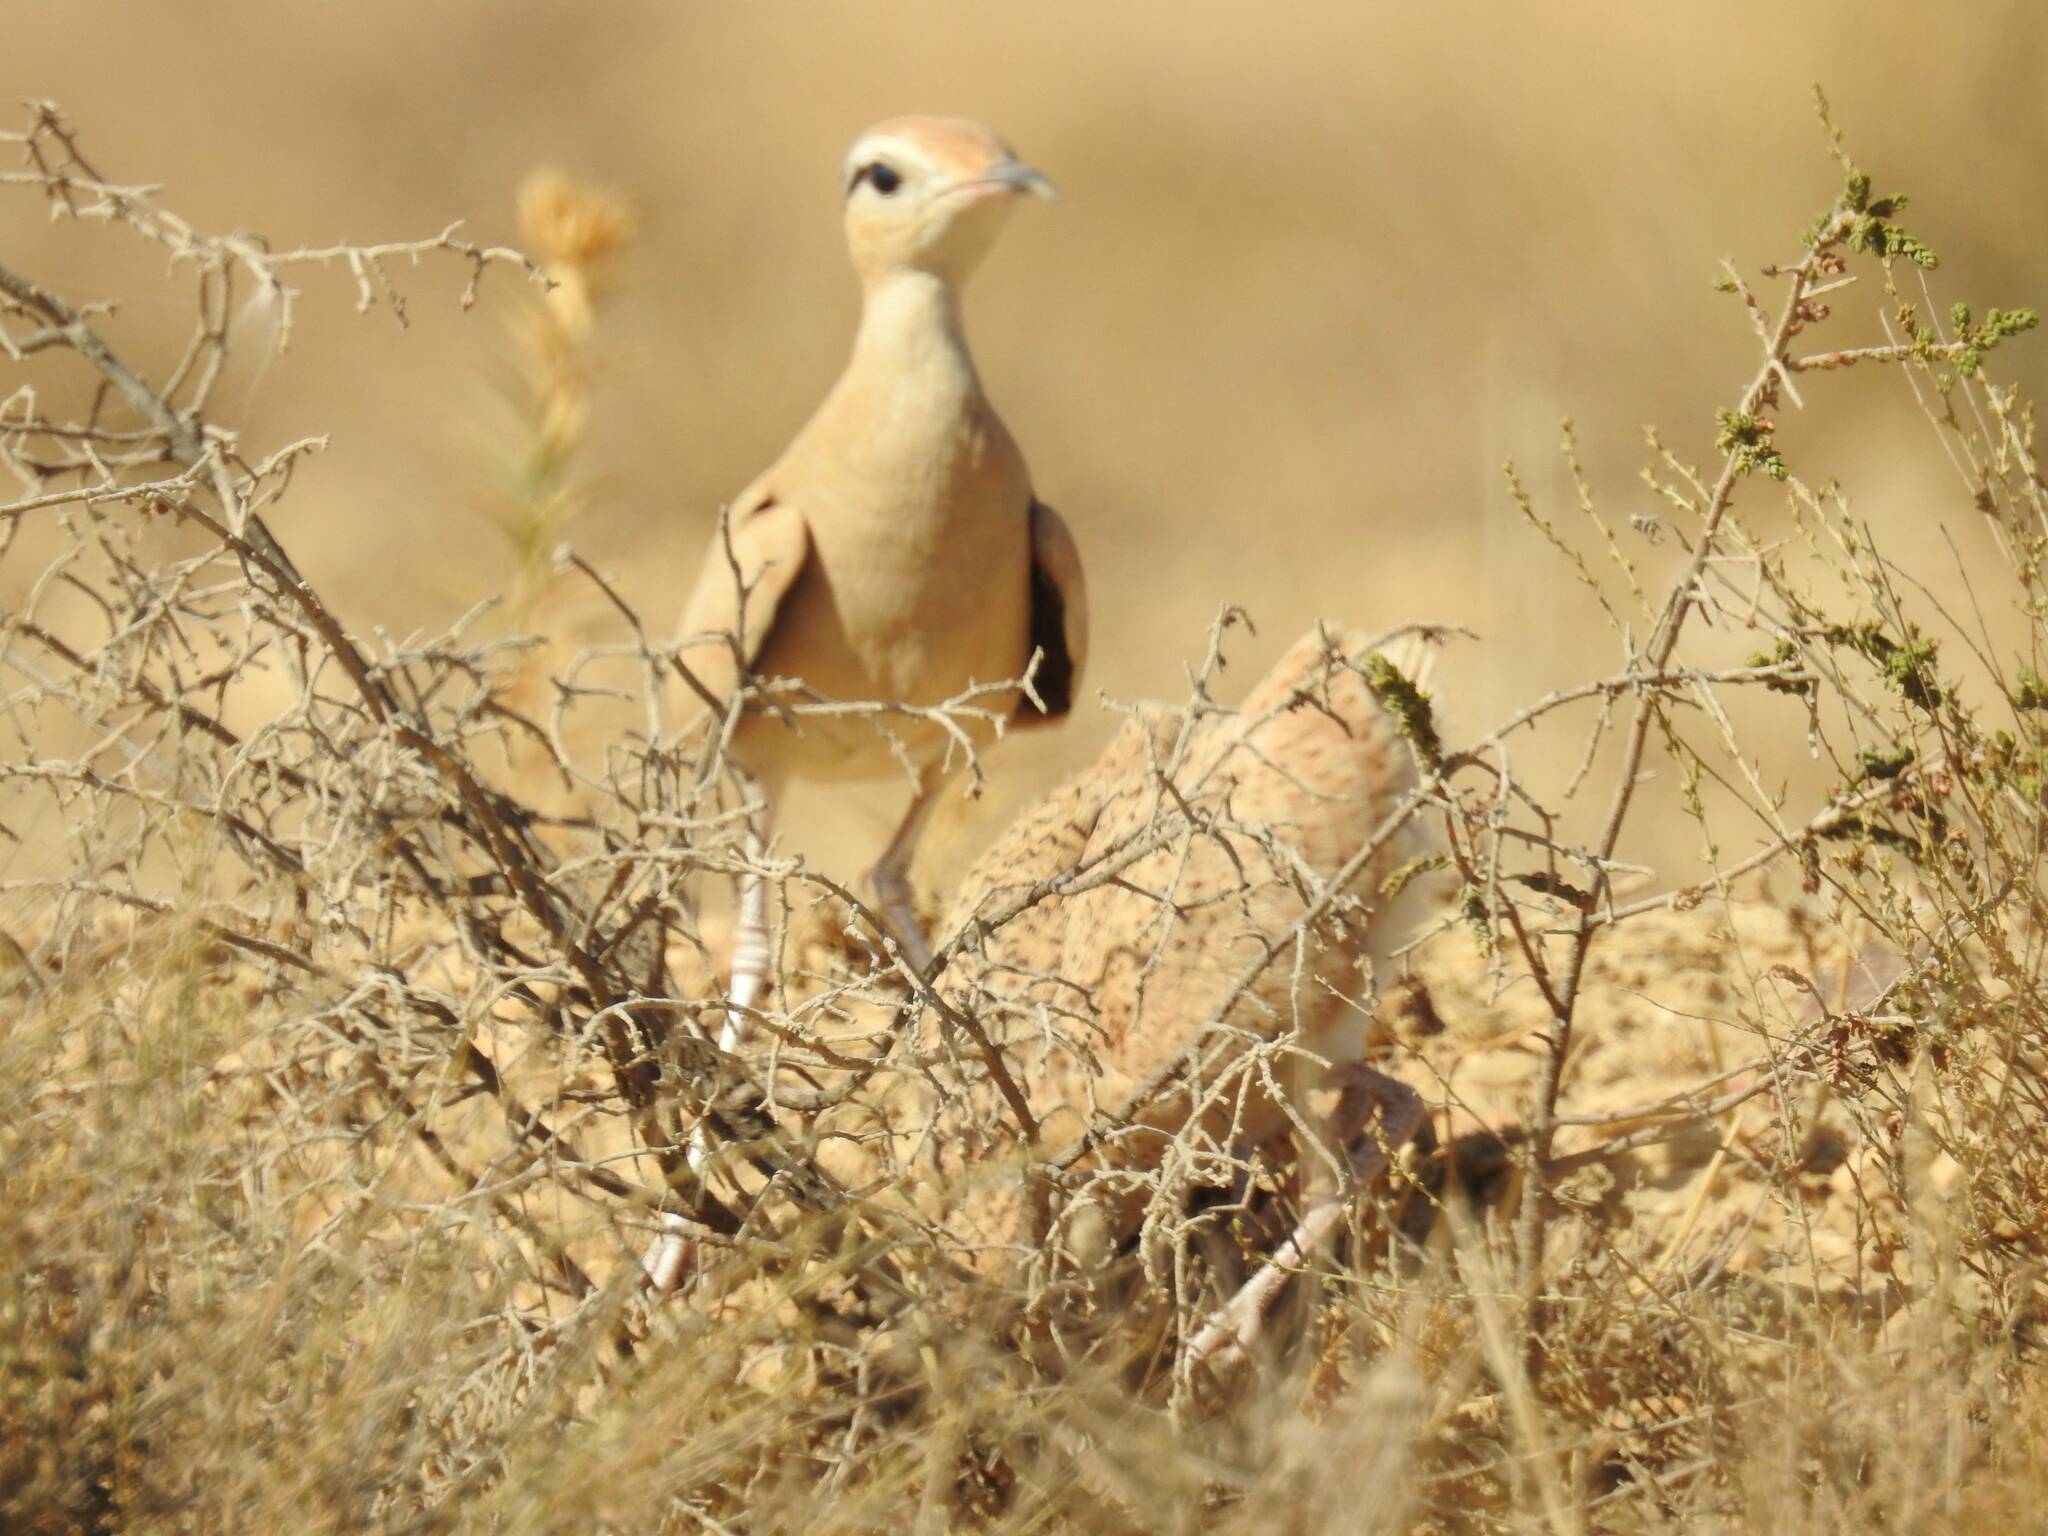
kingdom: Animalia
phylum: Chordata
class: Aves
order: Charadriiformes
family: Glareolidae
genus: Cursorius
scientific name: Cursorius cursor
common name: Cream-colored courser
